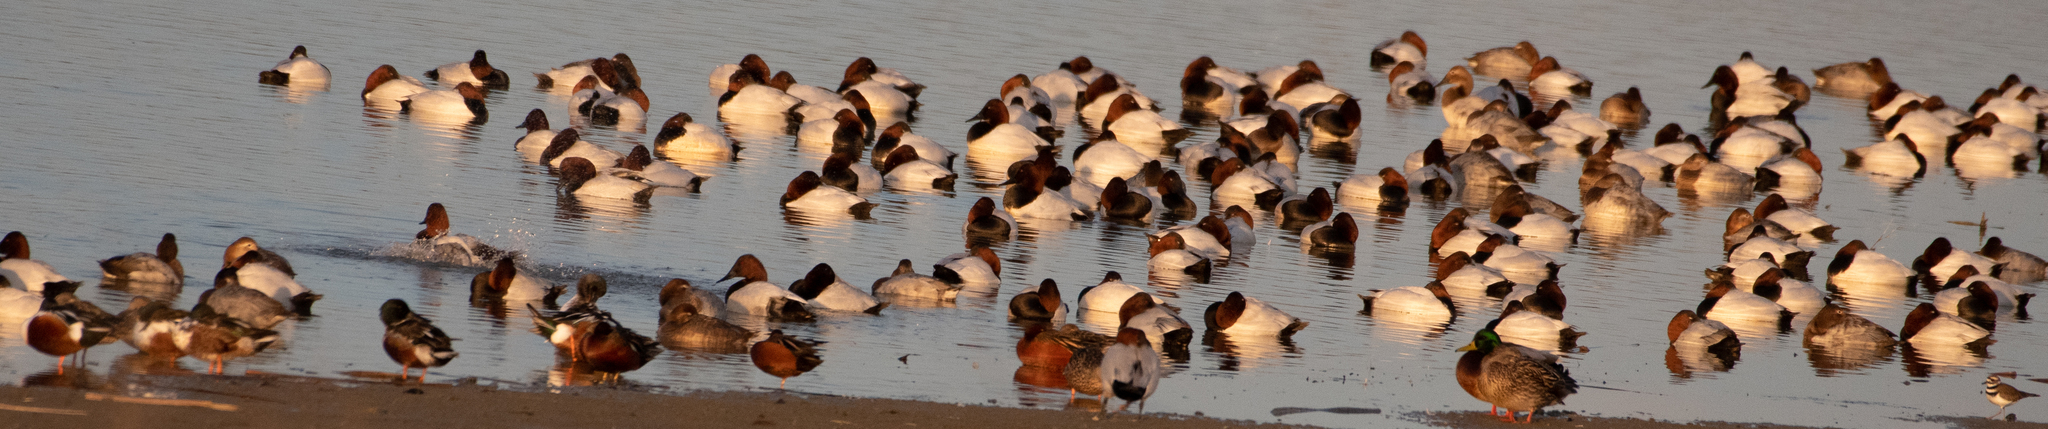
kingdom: Animalia
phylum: Chordata
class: Aves
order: Anseriformes
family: Anatidae
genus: Aythya
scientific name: Aythya valisineria
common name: Canvasback
